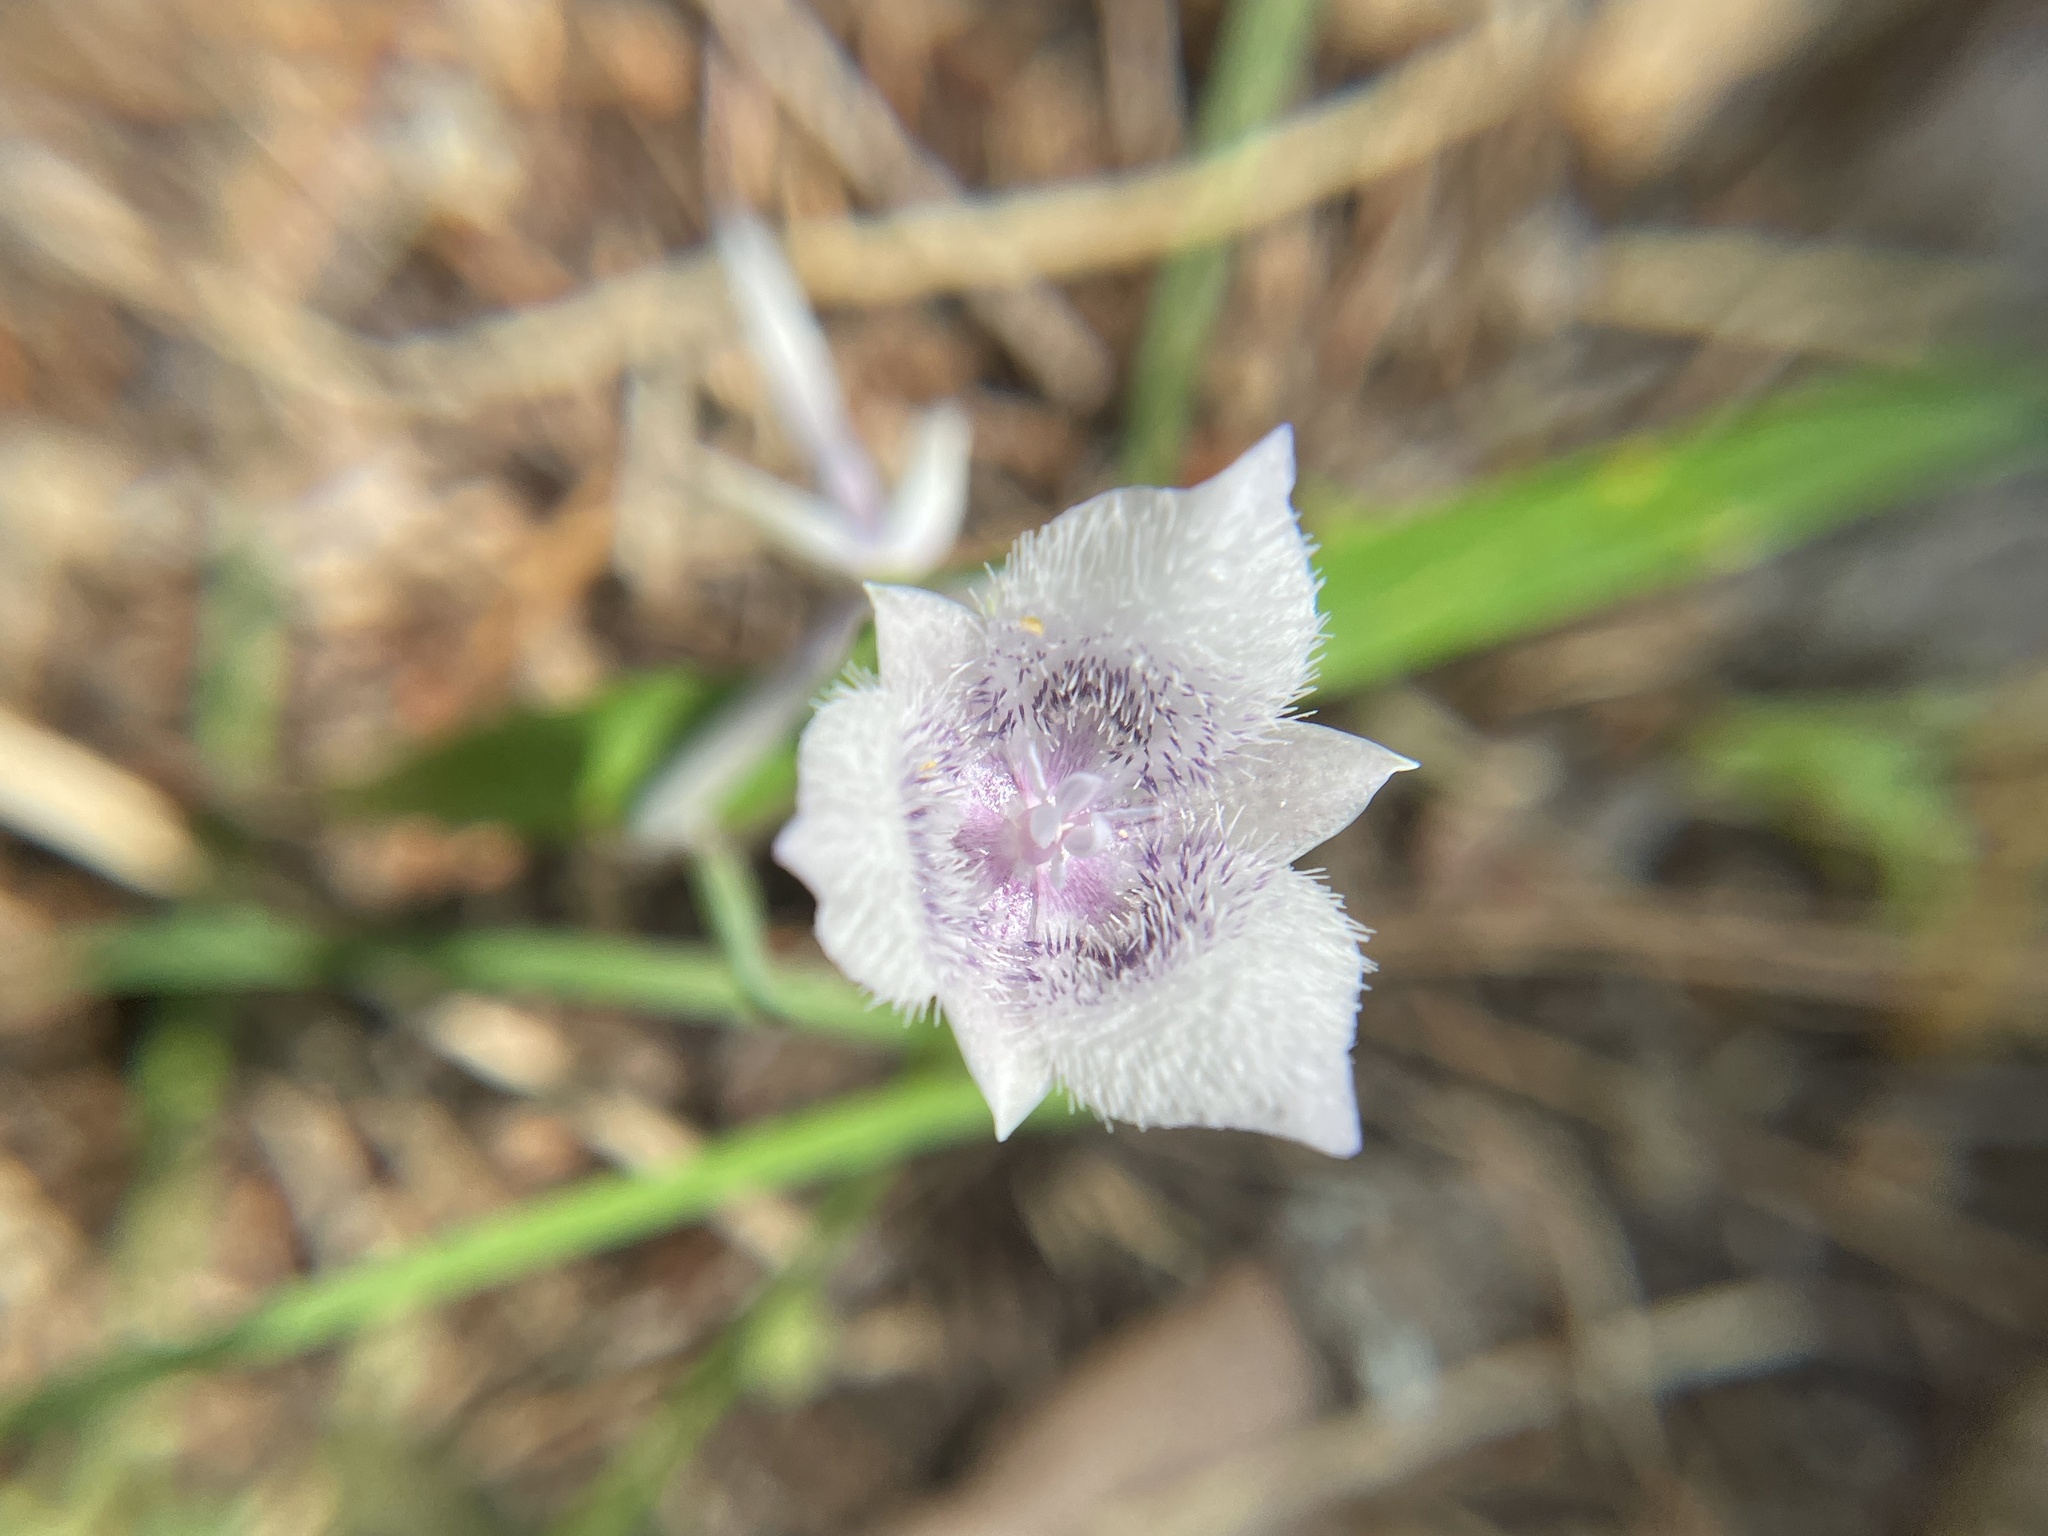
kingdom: Plantae
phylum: Tracheophyta
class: Liliopsida
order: Liliales
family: Liliaceae
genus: Calochortus
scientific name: Calochortus tolmiei
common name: Pussy-ears
